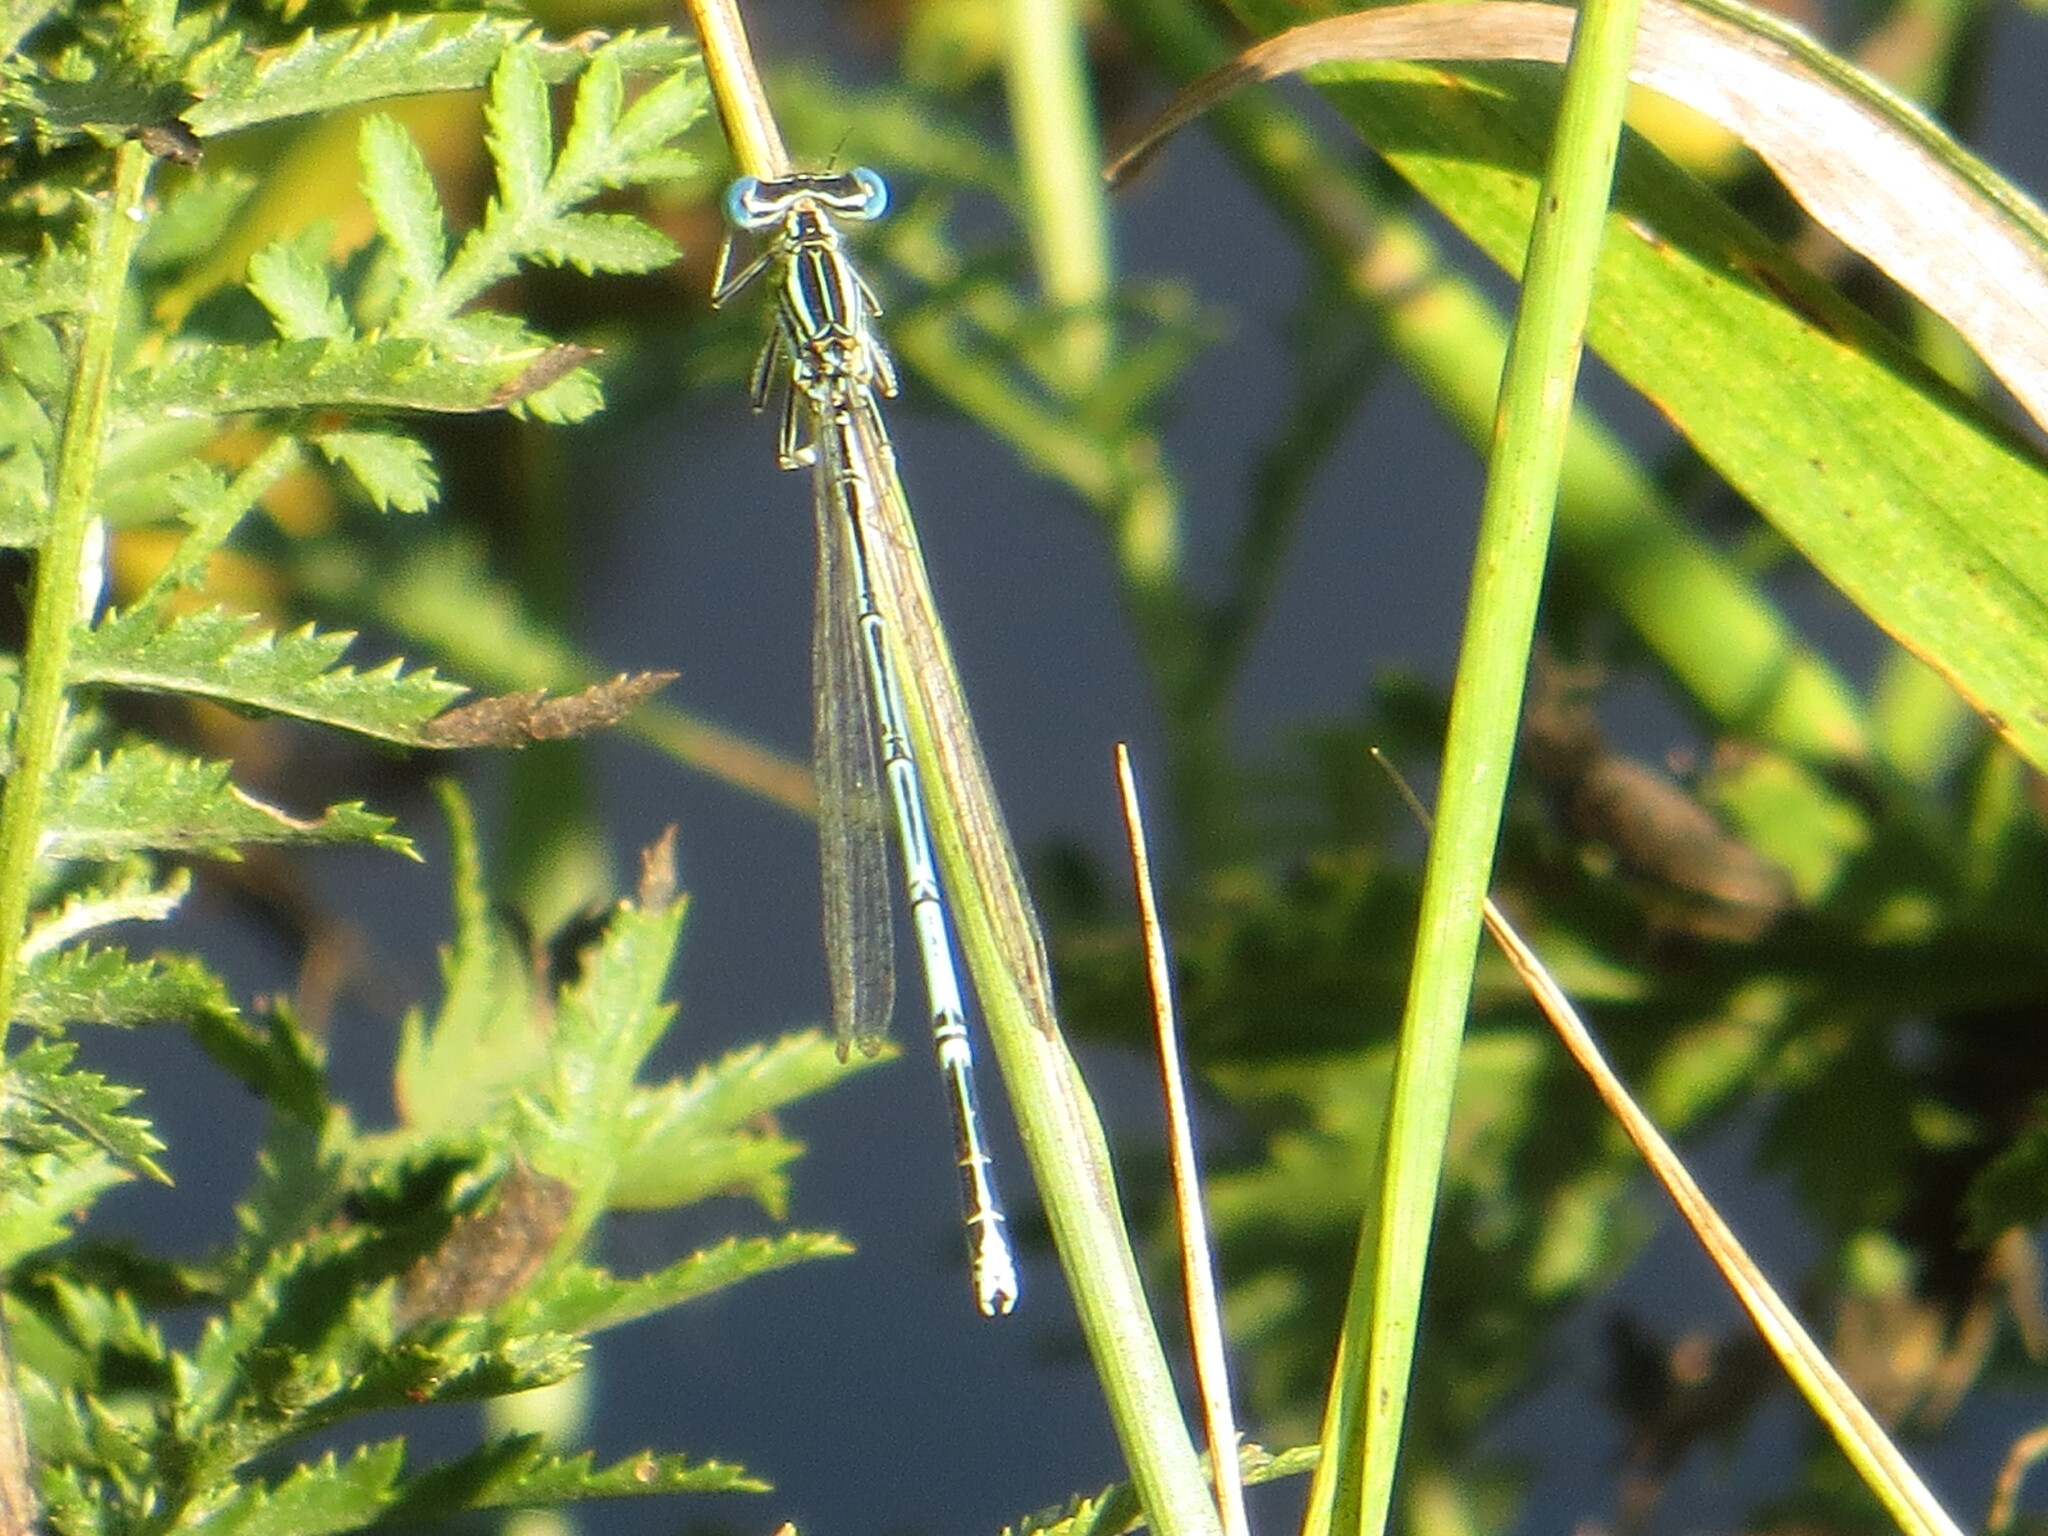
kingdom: Animalia
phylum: Arthropoda
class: Insecta
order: Odonata
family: Platycnemididae
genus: Platycnemis
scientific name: Platycnemis pennipes
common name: White-legged damselfly
